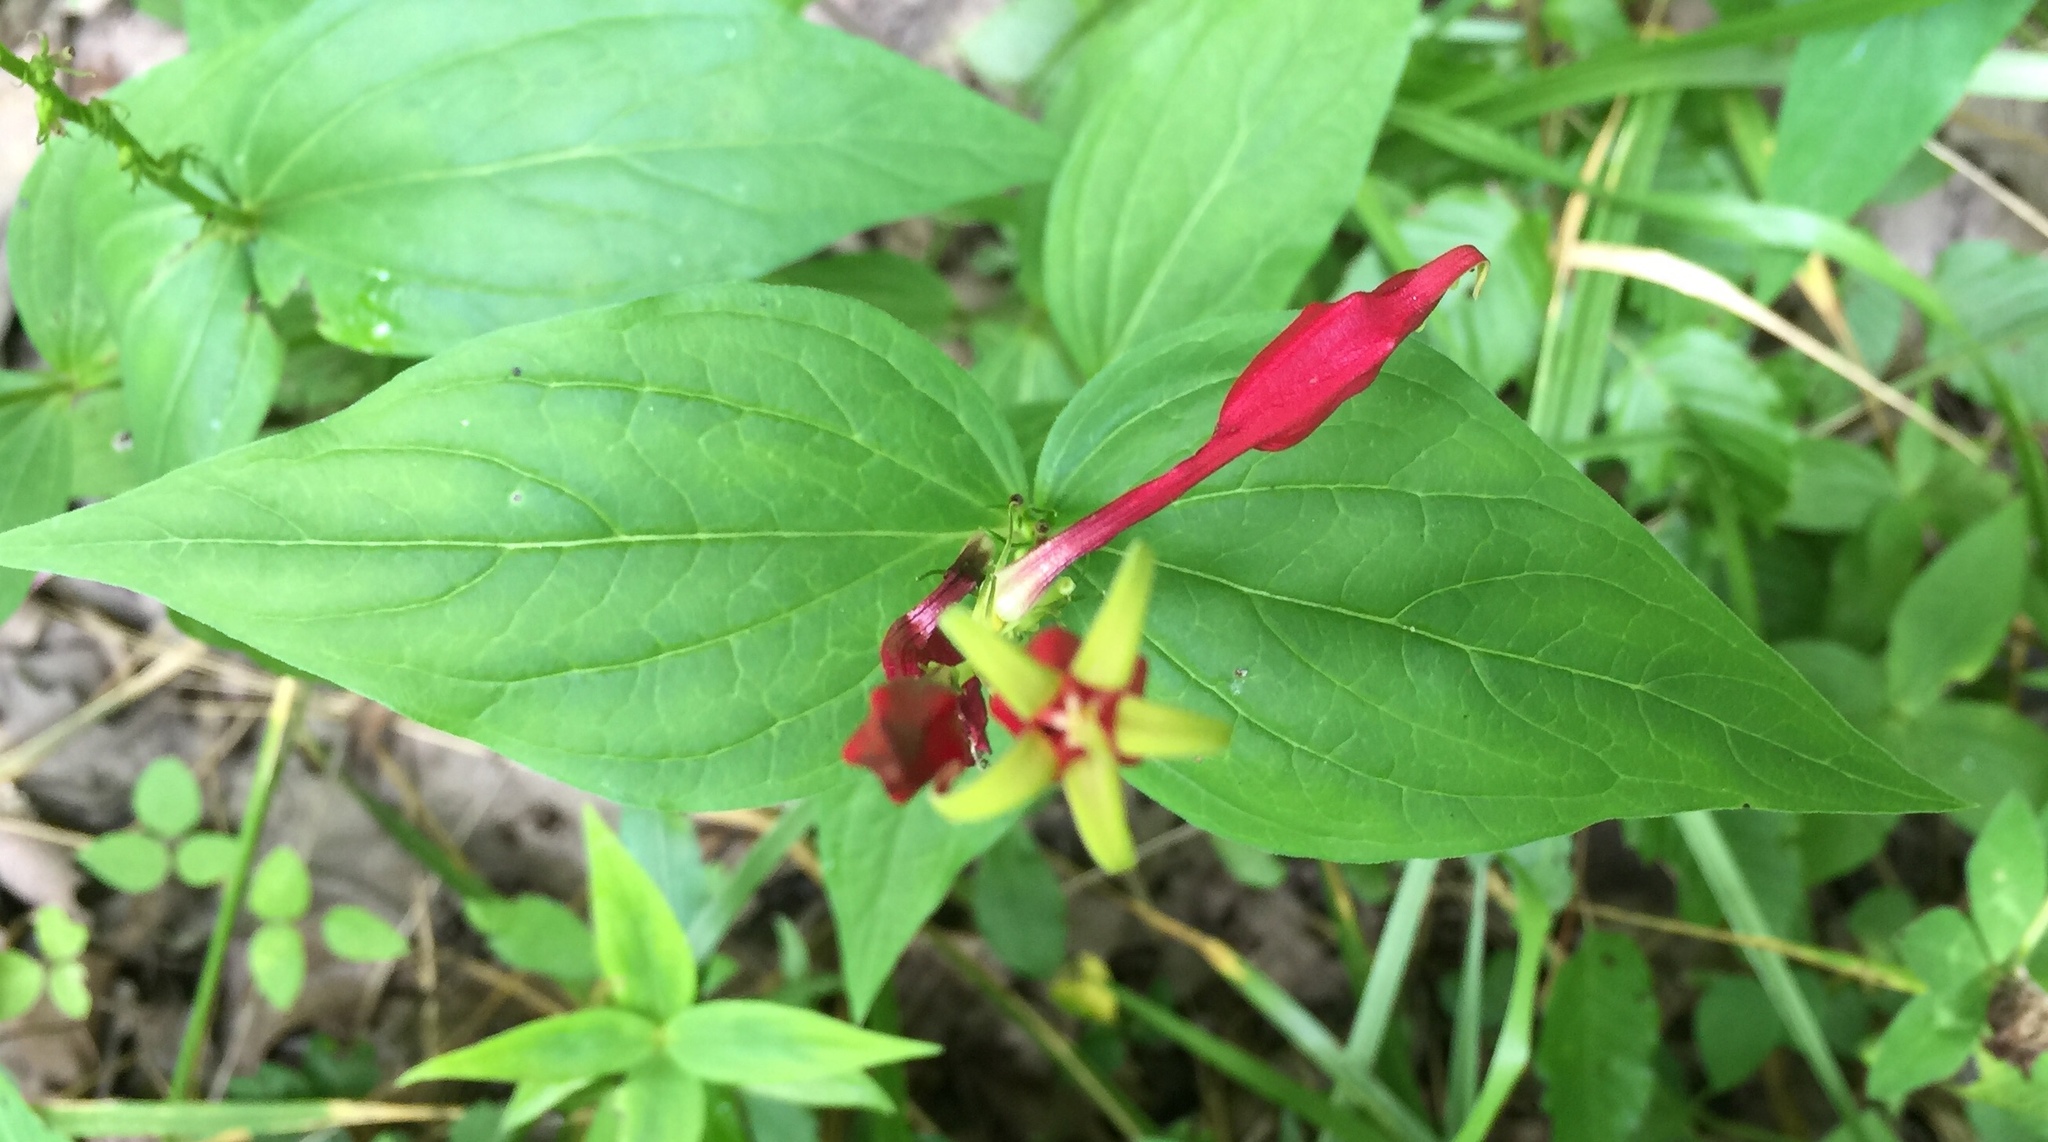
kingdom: Plantae
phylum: Tracheophyta
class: Magnoliopsida
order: Gentianales
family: Loganiaceae
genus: Spigelia
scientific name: Spigelia marilandica
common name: Indian-pink
